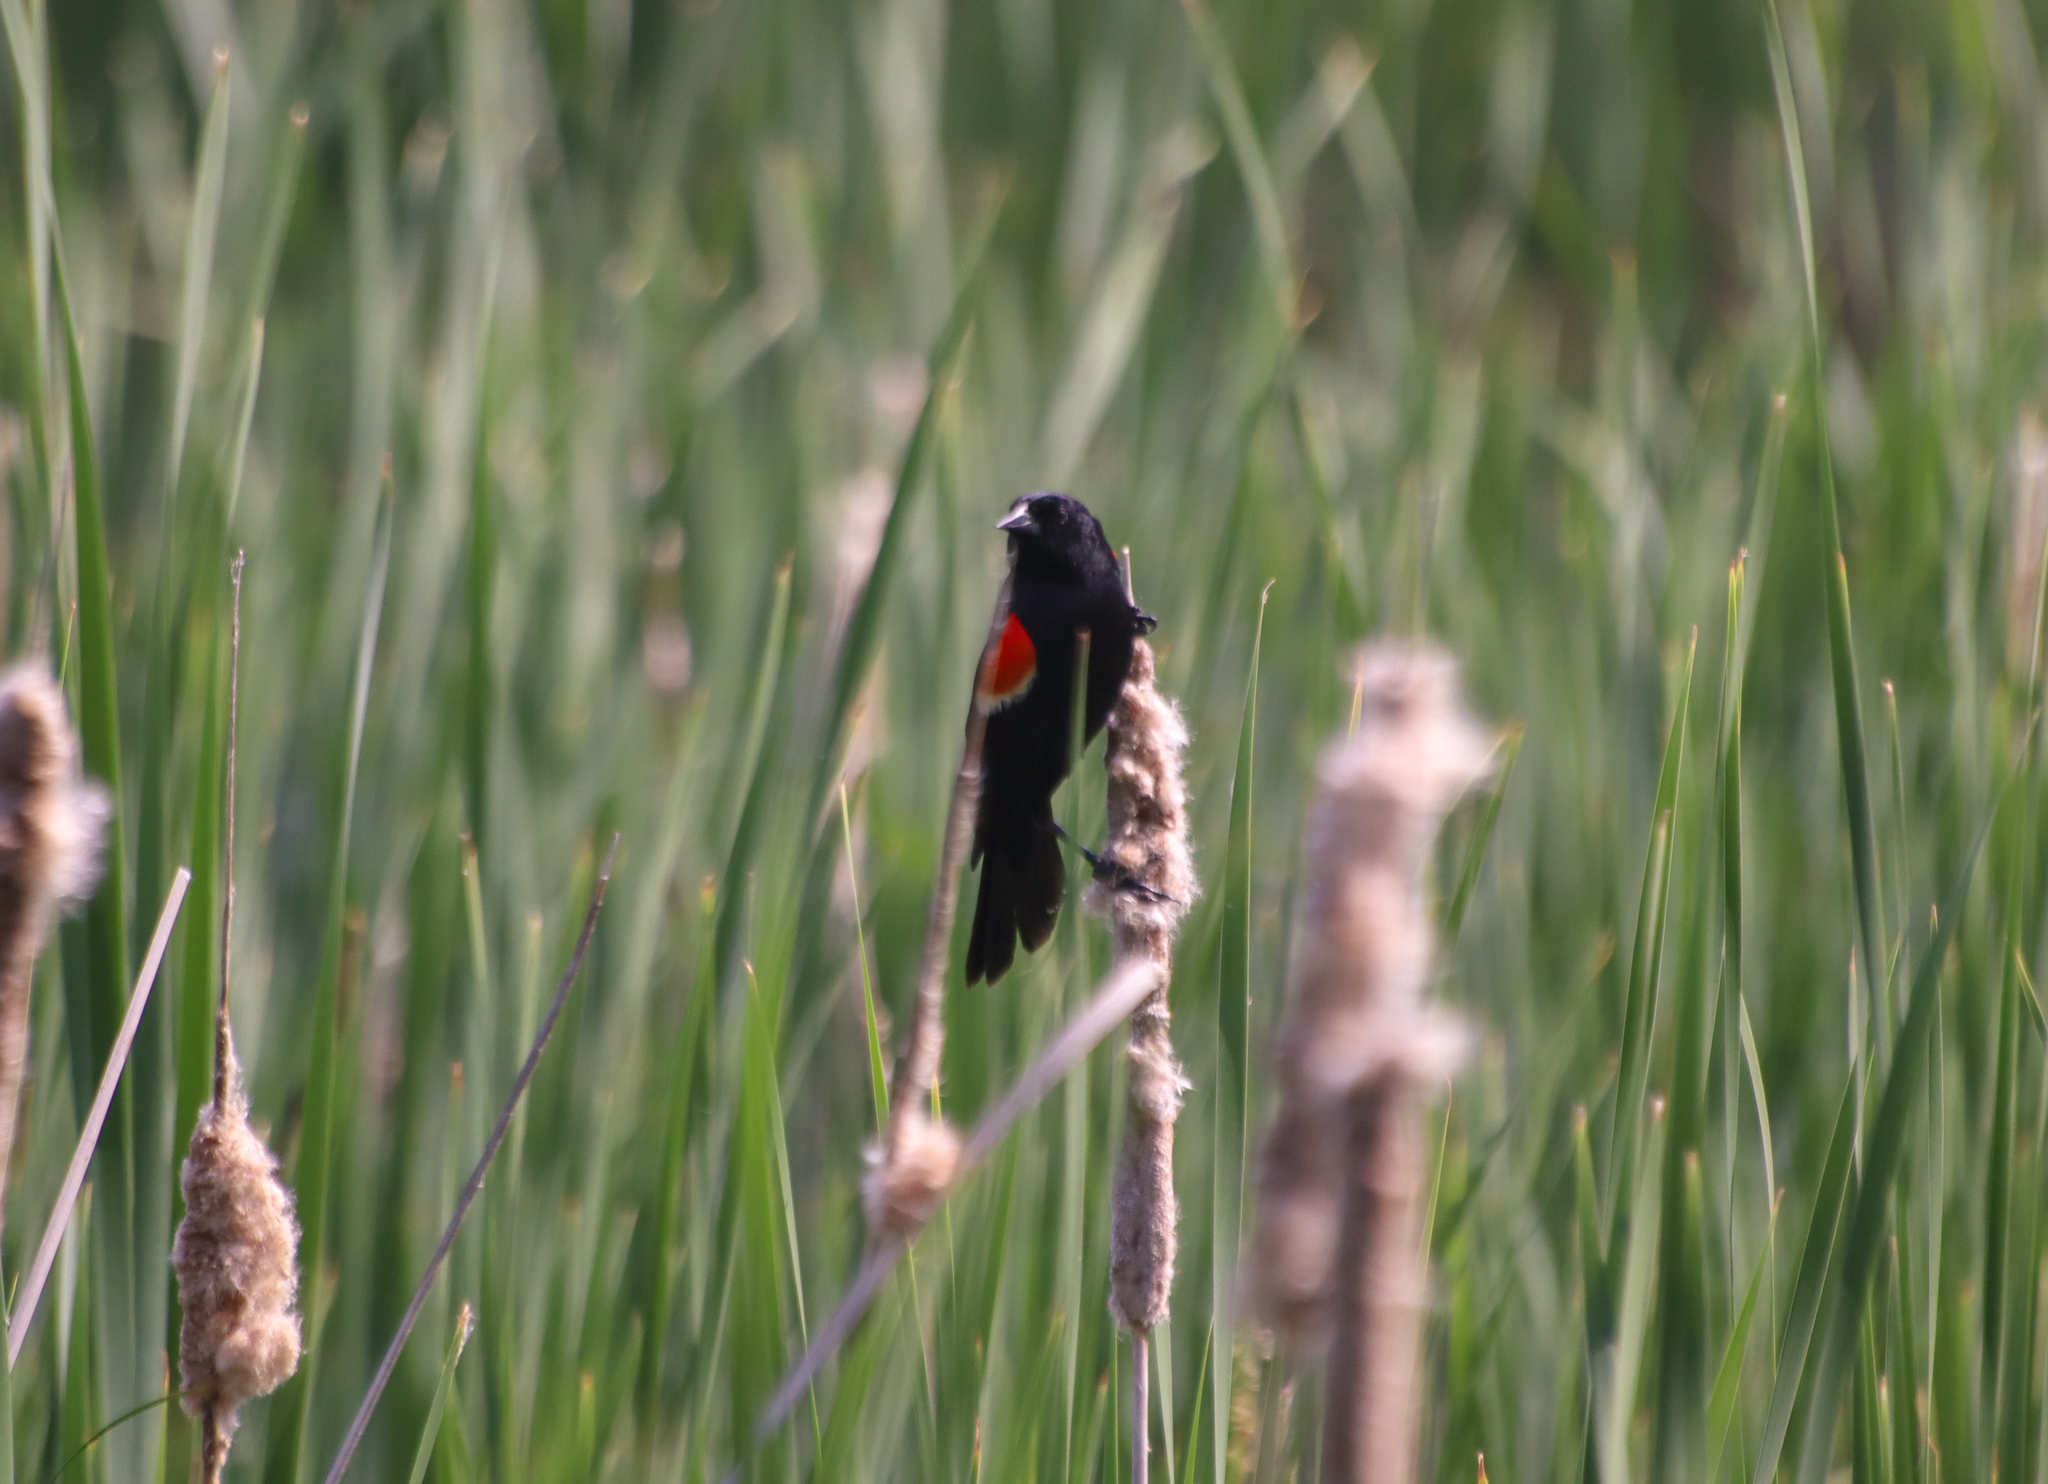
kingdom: Animalia
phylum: Chordata
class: Aves
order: Passeriformes
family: Icteridae
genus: Agelaius
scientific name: Agelaius phoeniceus
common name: Red-winged blackbird
